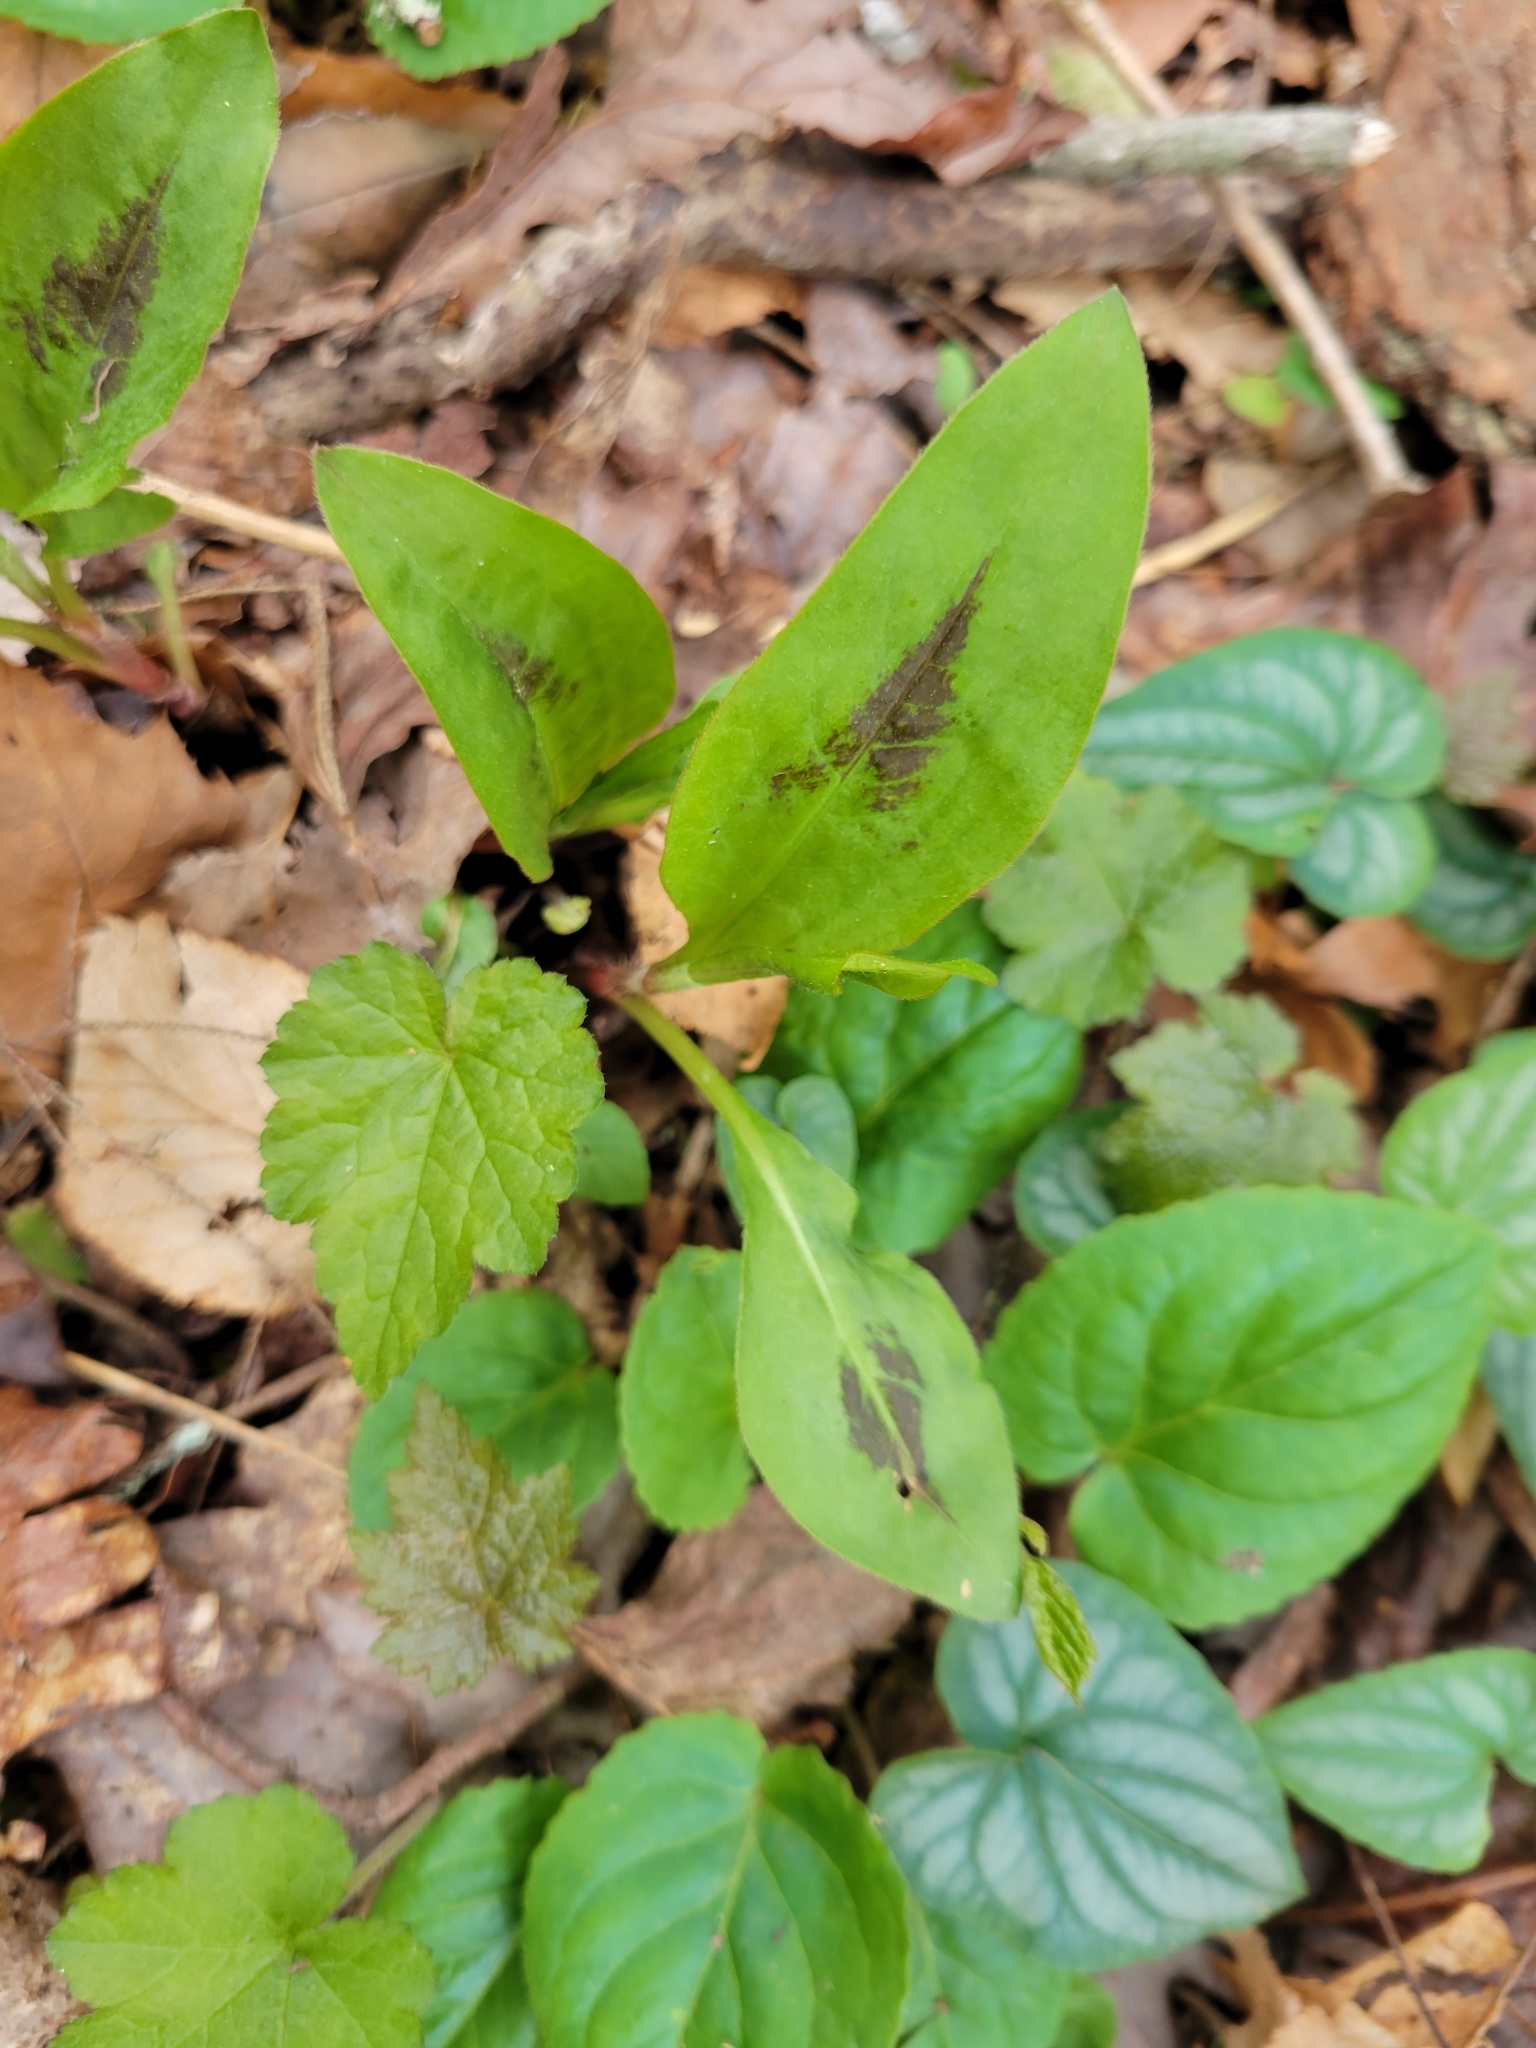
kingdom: Plantae
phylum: Tracheophyta
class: Magnoliopsida
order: Caryophyllales
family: Polygonaceae
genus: Persicaria
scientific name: Persicaria virginiana
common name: Jumpseed
